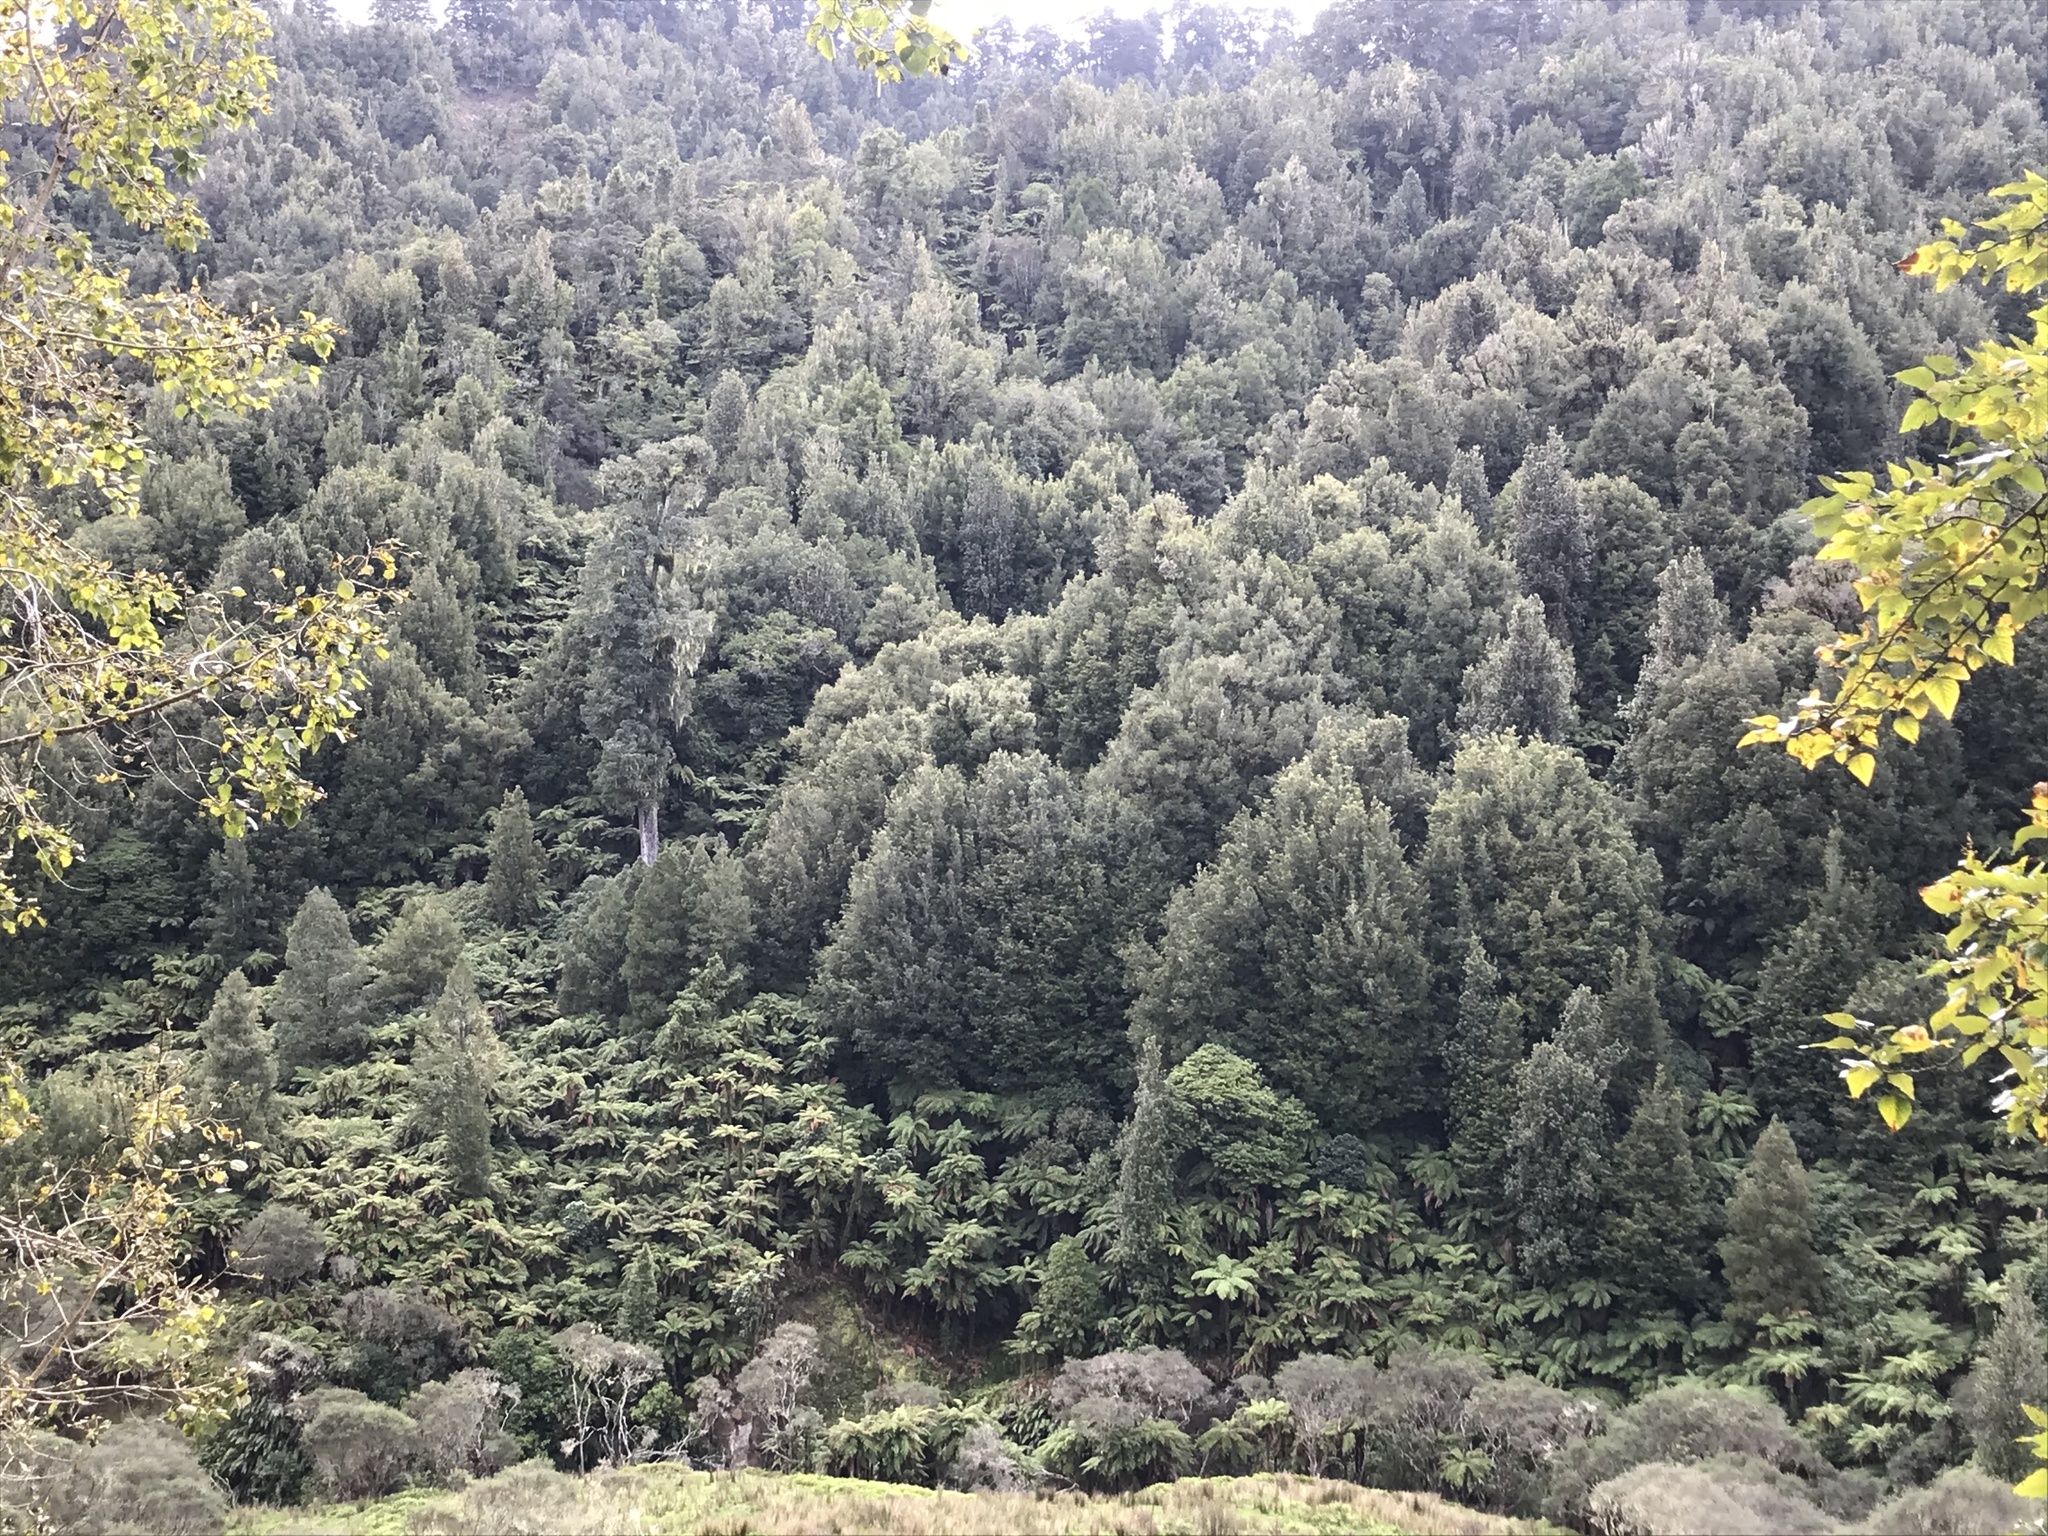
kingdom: Plantae
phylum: Tracheophyta
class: Pinopsida
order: Pinales
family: Podocarpaceae
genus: Dacrycarpus
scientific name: Dacrycarpus dacrydioides
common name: White pine
